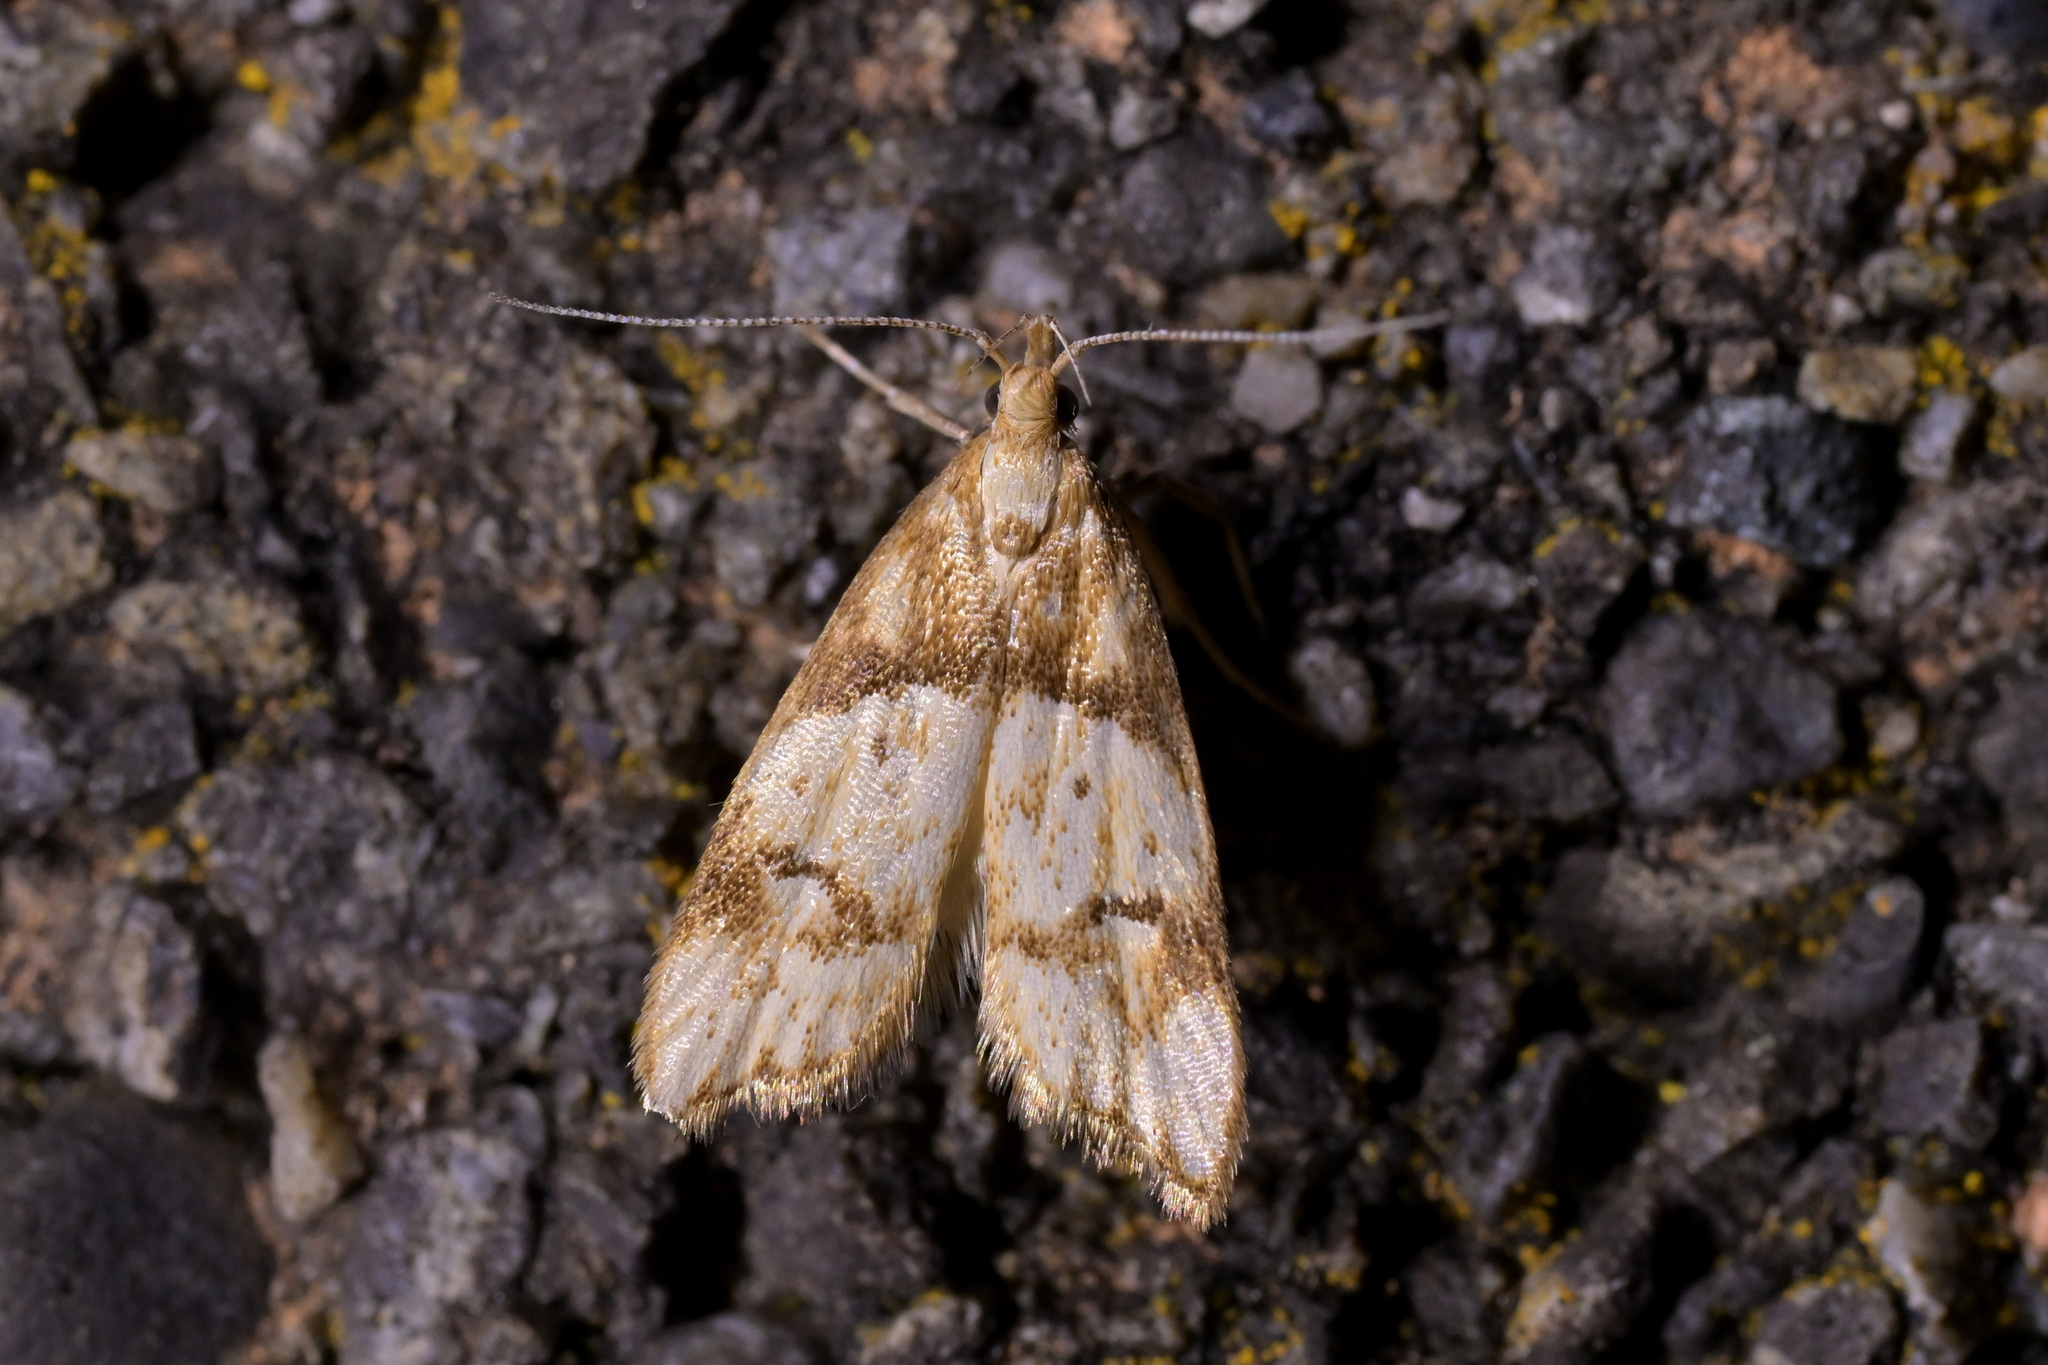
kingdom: Animalia
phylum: Arthropoda
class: Insecta
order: Lepidoptera
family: Oecophoridae
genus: Gymnobathra
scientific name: Gymnobathra hamatella
